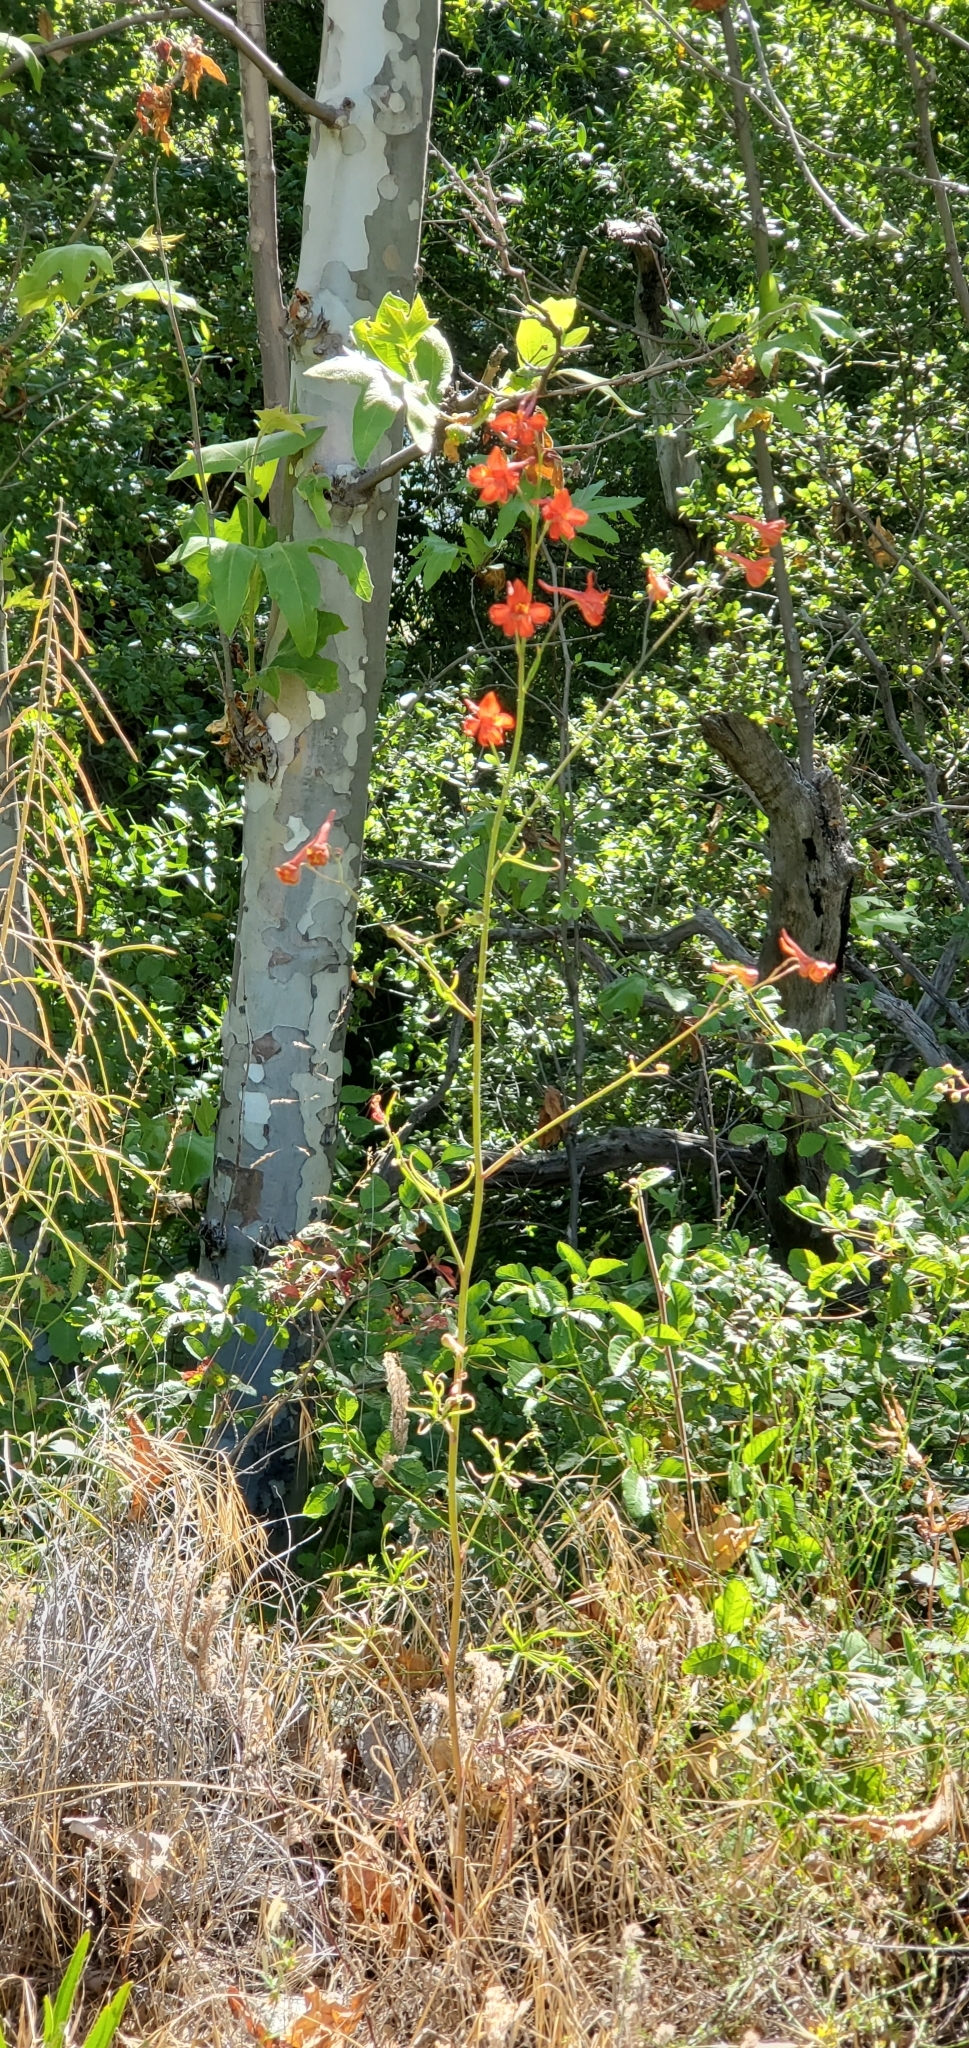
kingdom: Plantae
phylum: Tracheophyta
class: Magnoliopsida
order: Ranunculales
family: Ranunculaceae
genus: Delphinium
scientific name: Delphinium cardinale
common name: Scarlet larkspur
